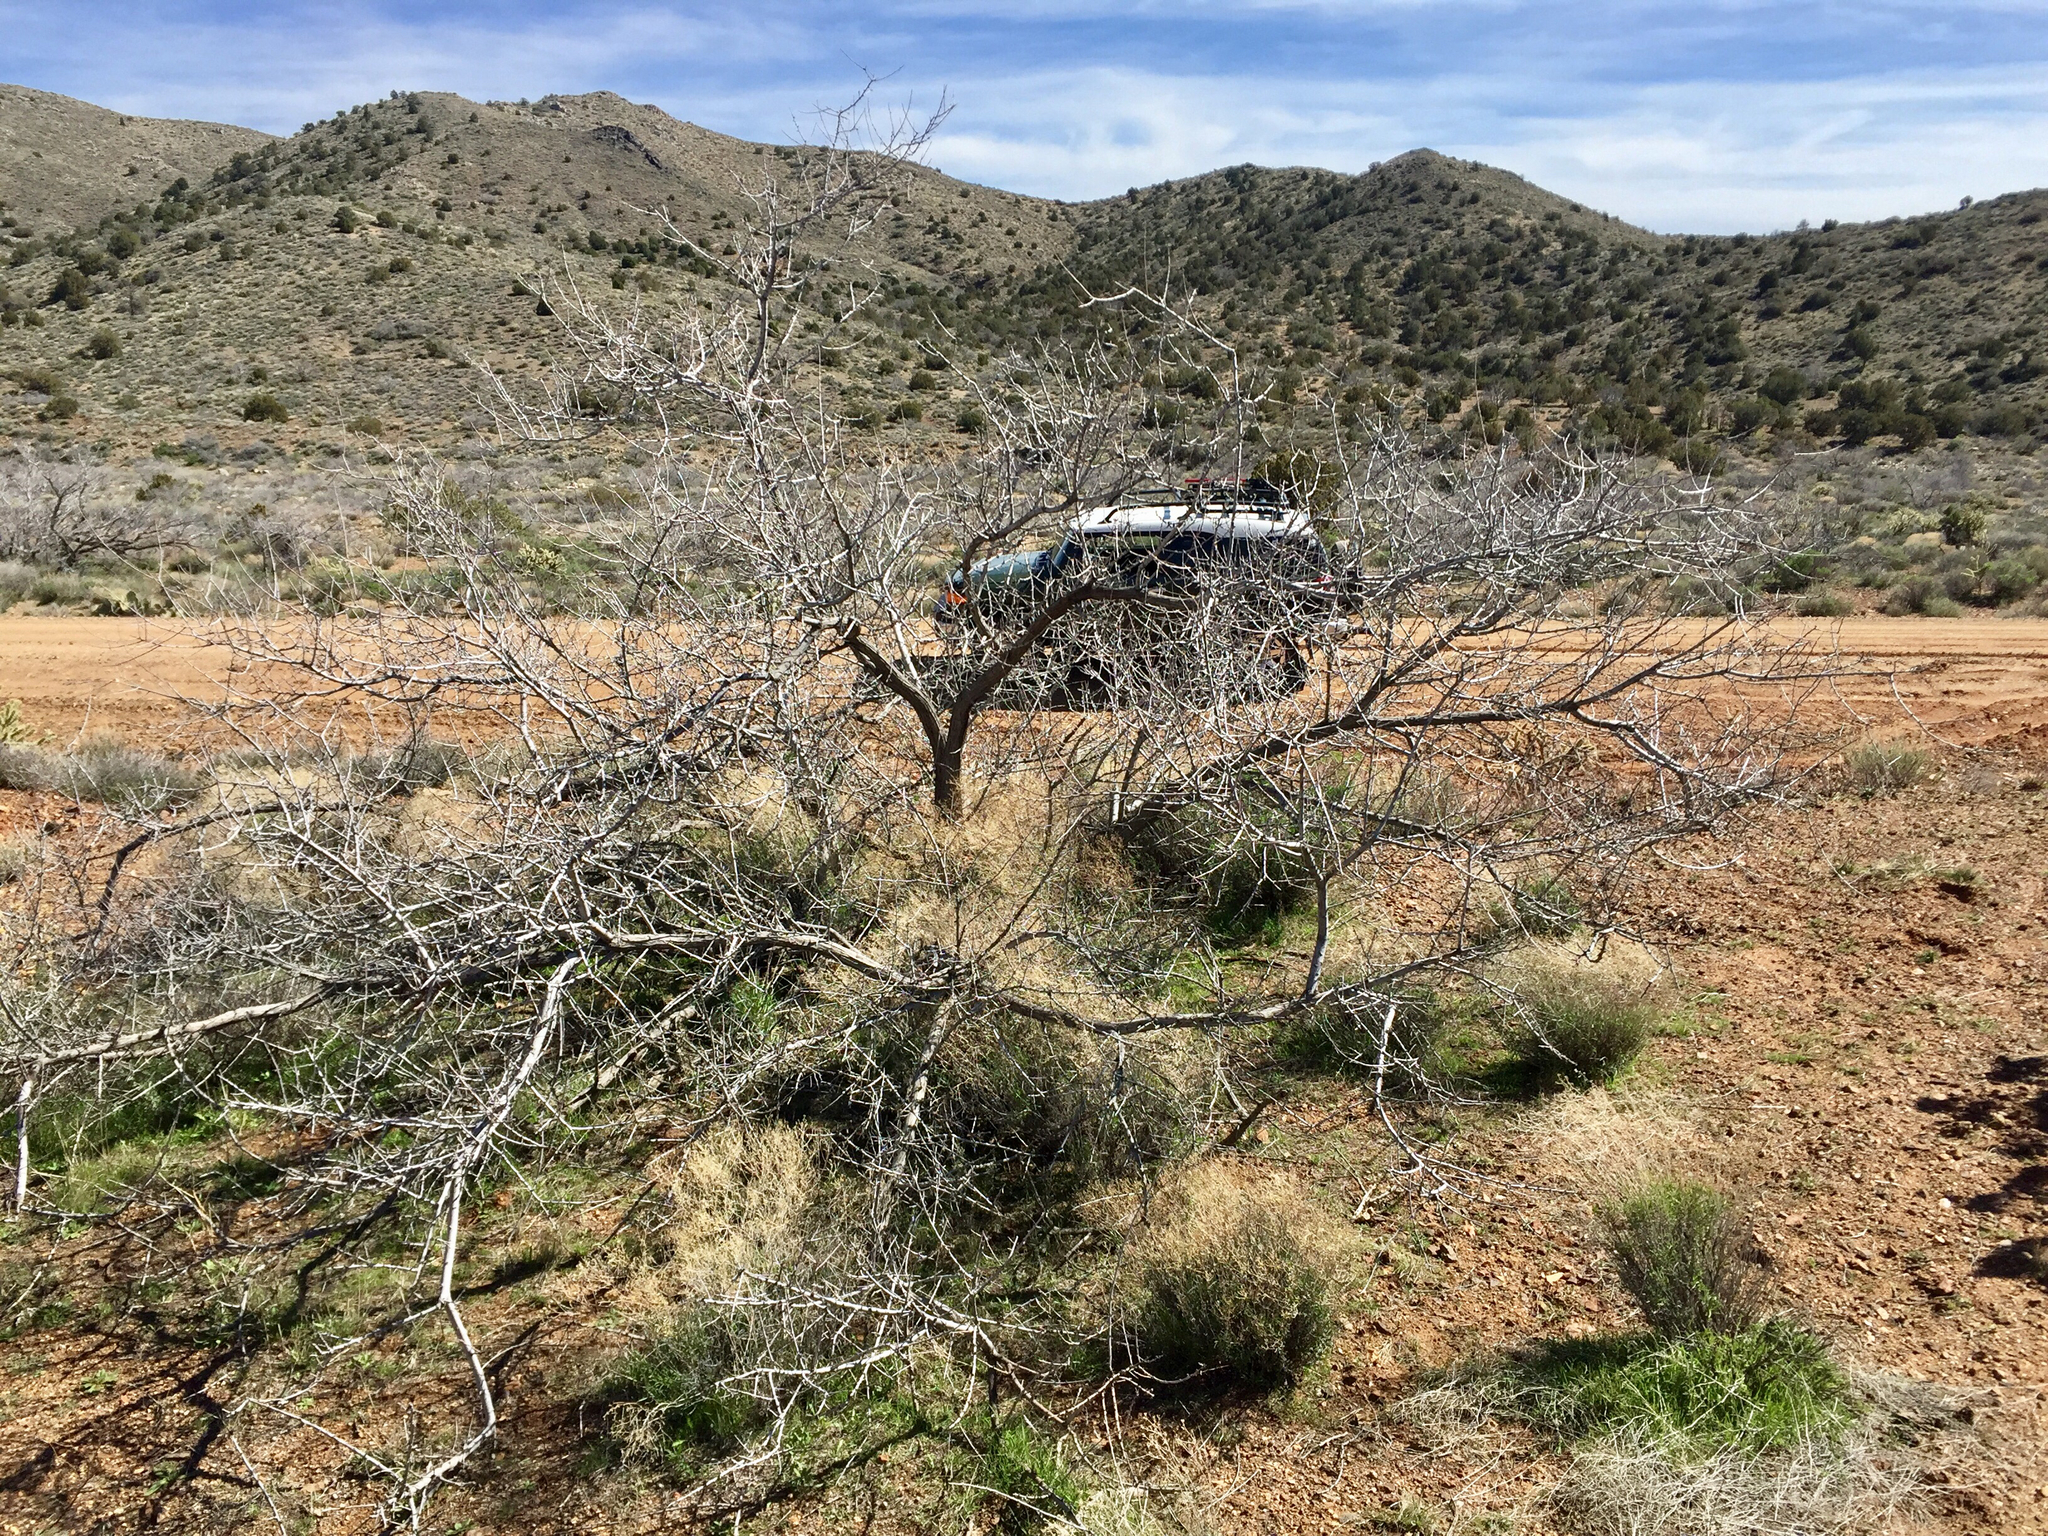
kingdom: Plantae
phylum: Tracheophyta
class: Magnoliopsida
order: Fabales
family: Fabaceae
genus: Senegalia
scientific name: Senegalia greggii
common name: Texas-mimosa
